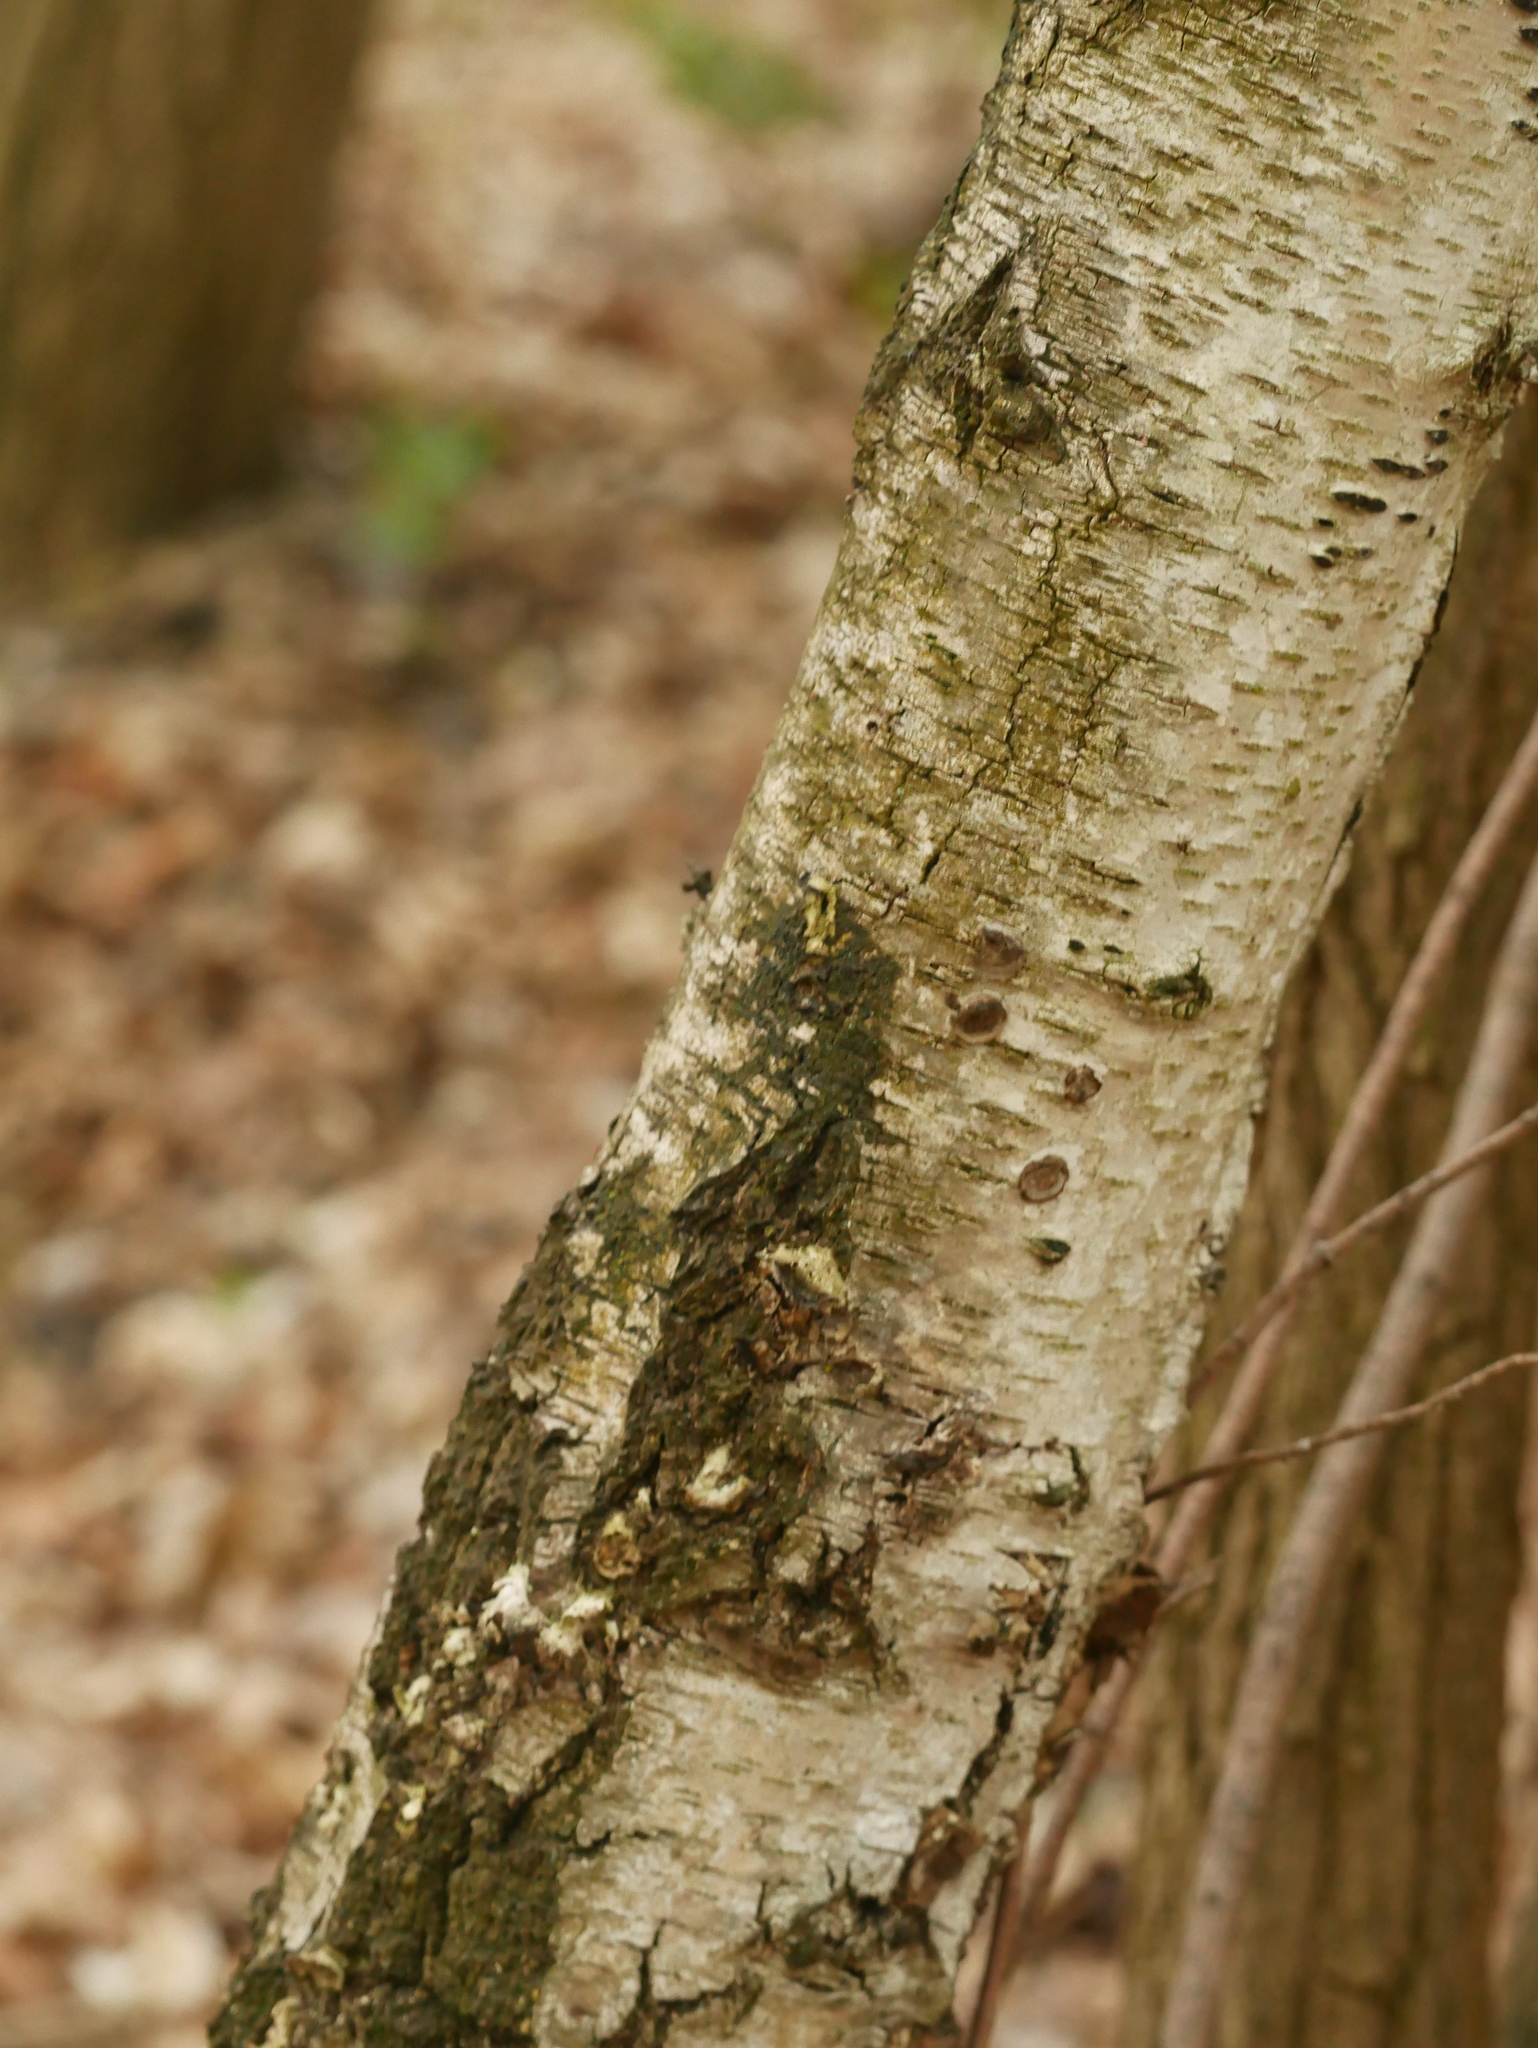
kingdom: Plantae
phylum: Tracheophyta
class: Magnoliopsida
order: Fagales
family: Betulaceae
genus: Betula
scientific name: Betula pendula
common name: Silver birch
